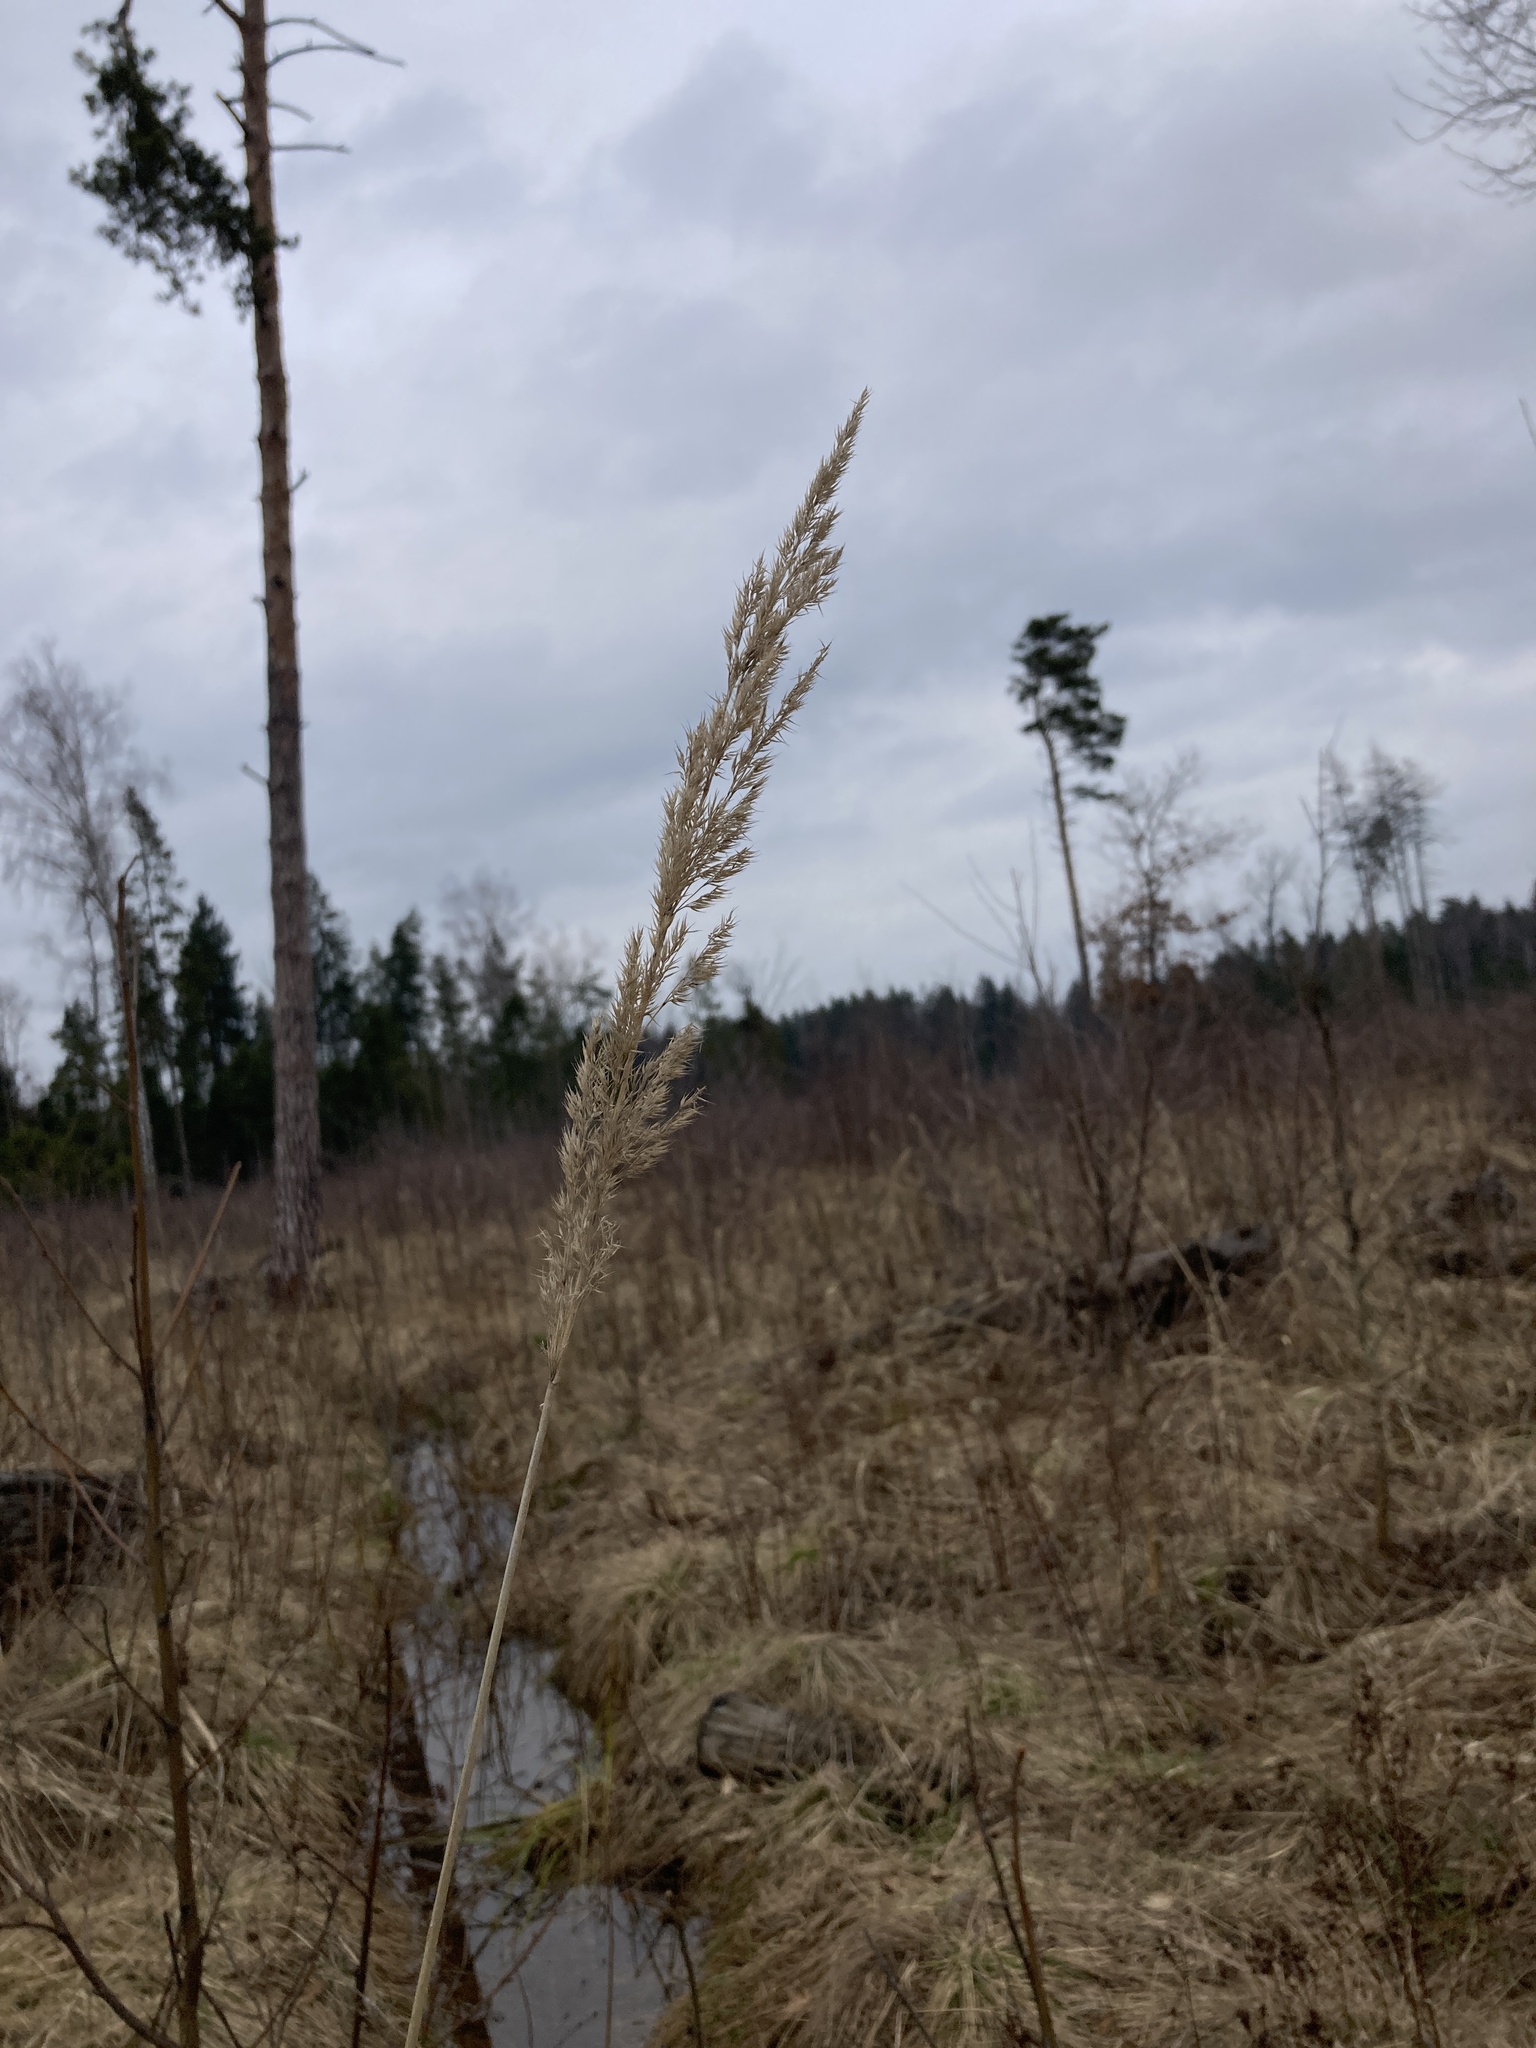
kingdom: Plantae
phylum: Tracheophyta
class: Liliopsida
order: Poales
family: Poaceae
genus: Calamagrostis
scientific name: Calamagrostis epigejos
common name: Wood small-reed
